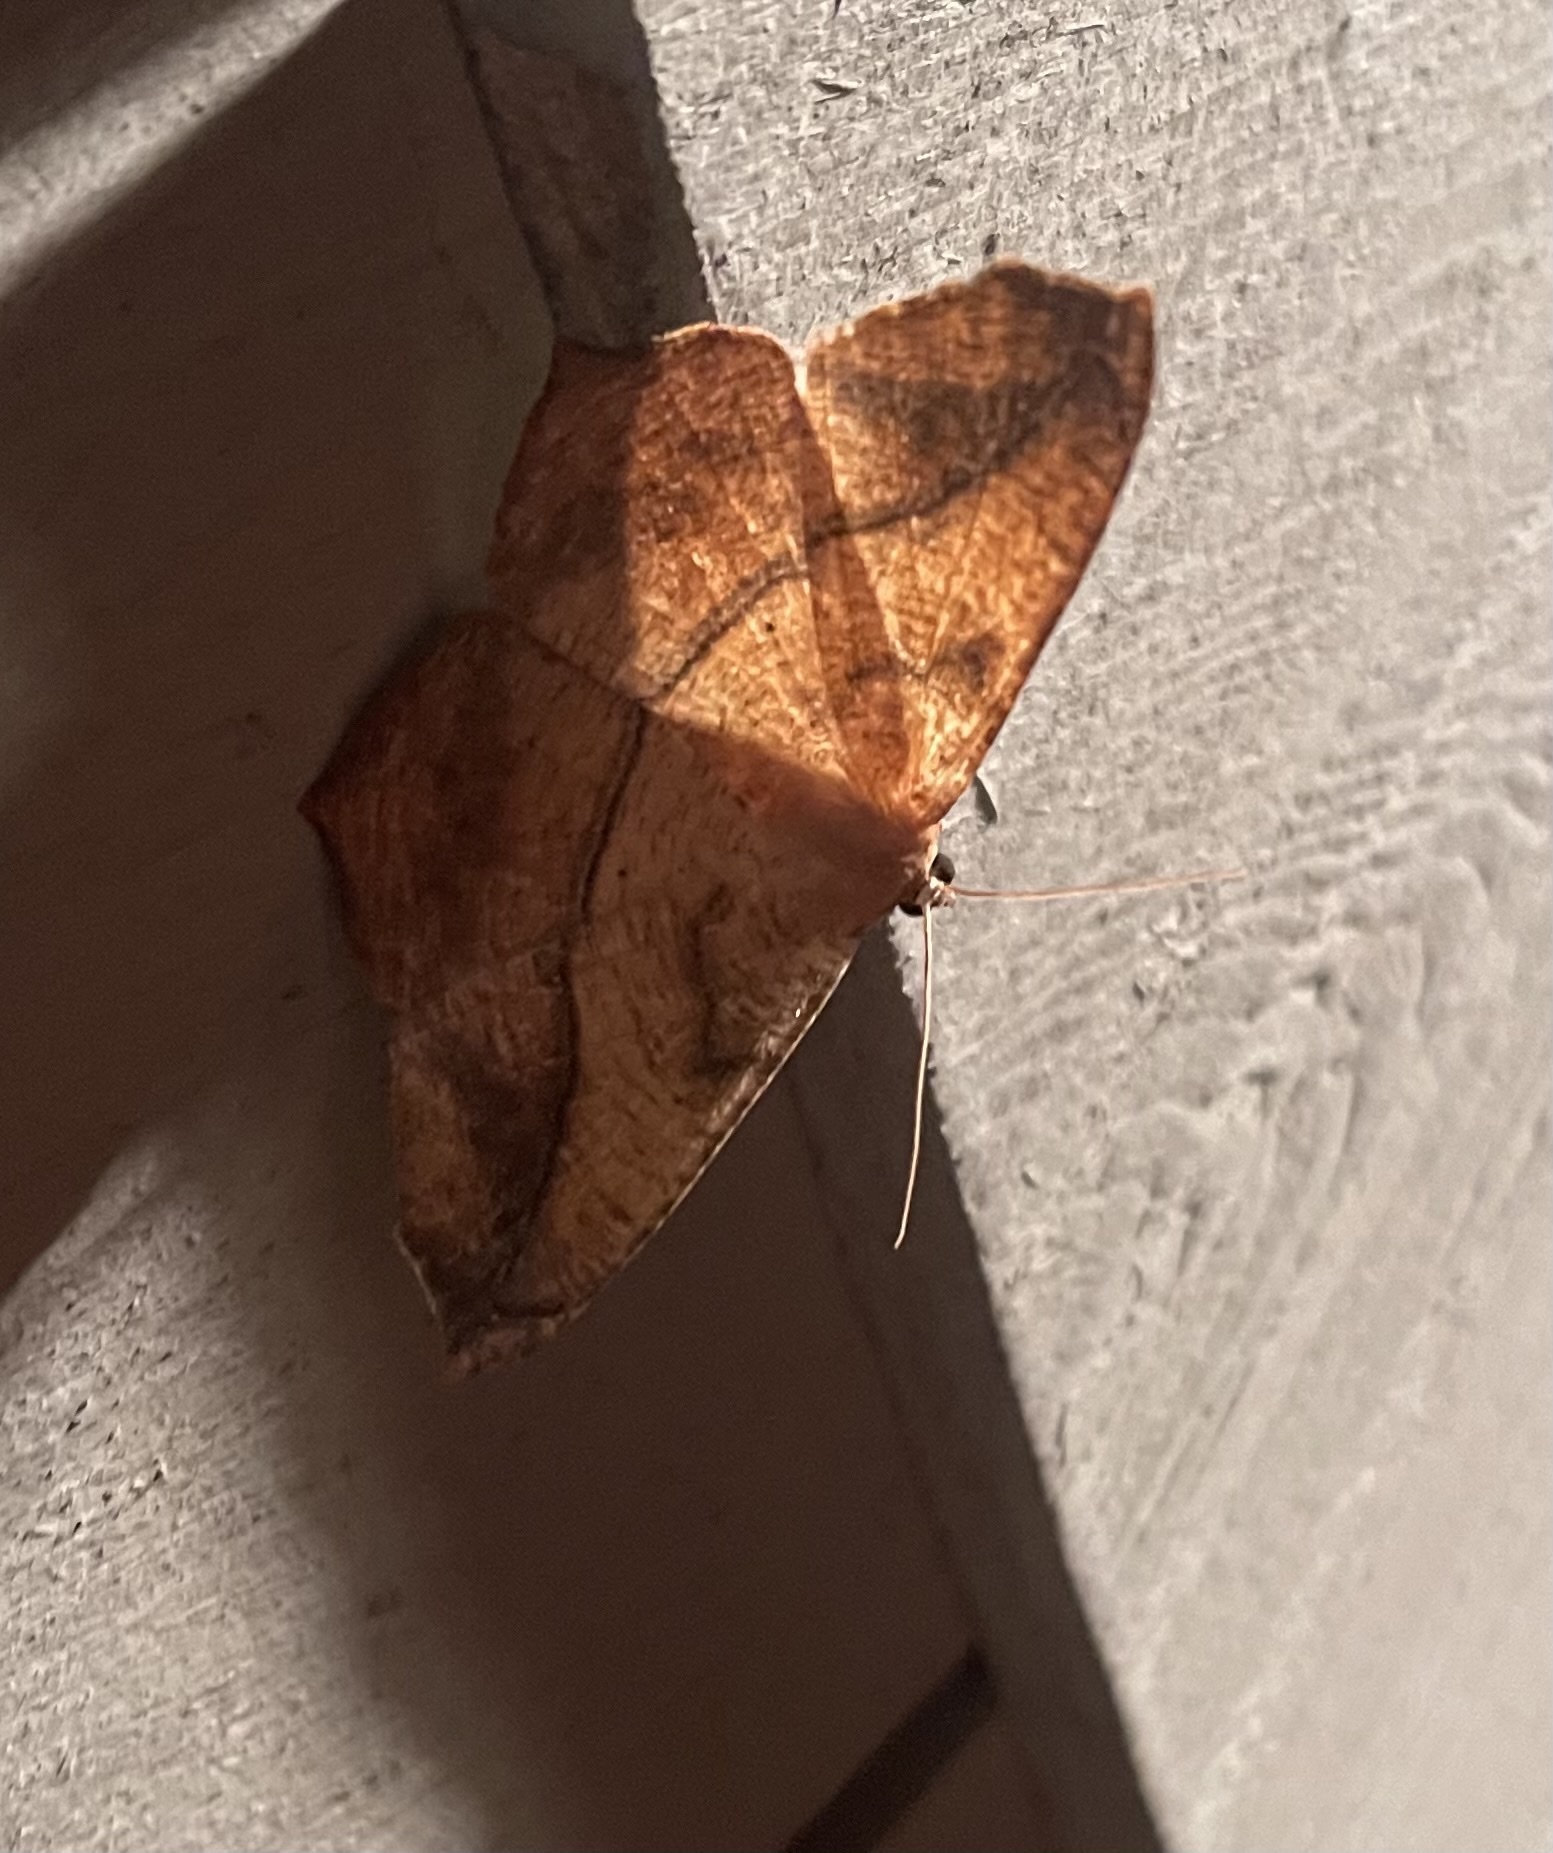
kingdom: Animalia
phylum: Arthropoda
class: Insecta
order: Lepidoptera
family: Geometridae
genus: Prochoerodes
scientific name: Prochoerodes lineola
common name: Large maple spanworm
